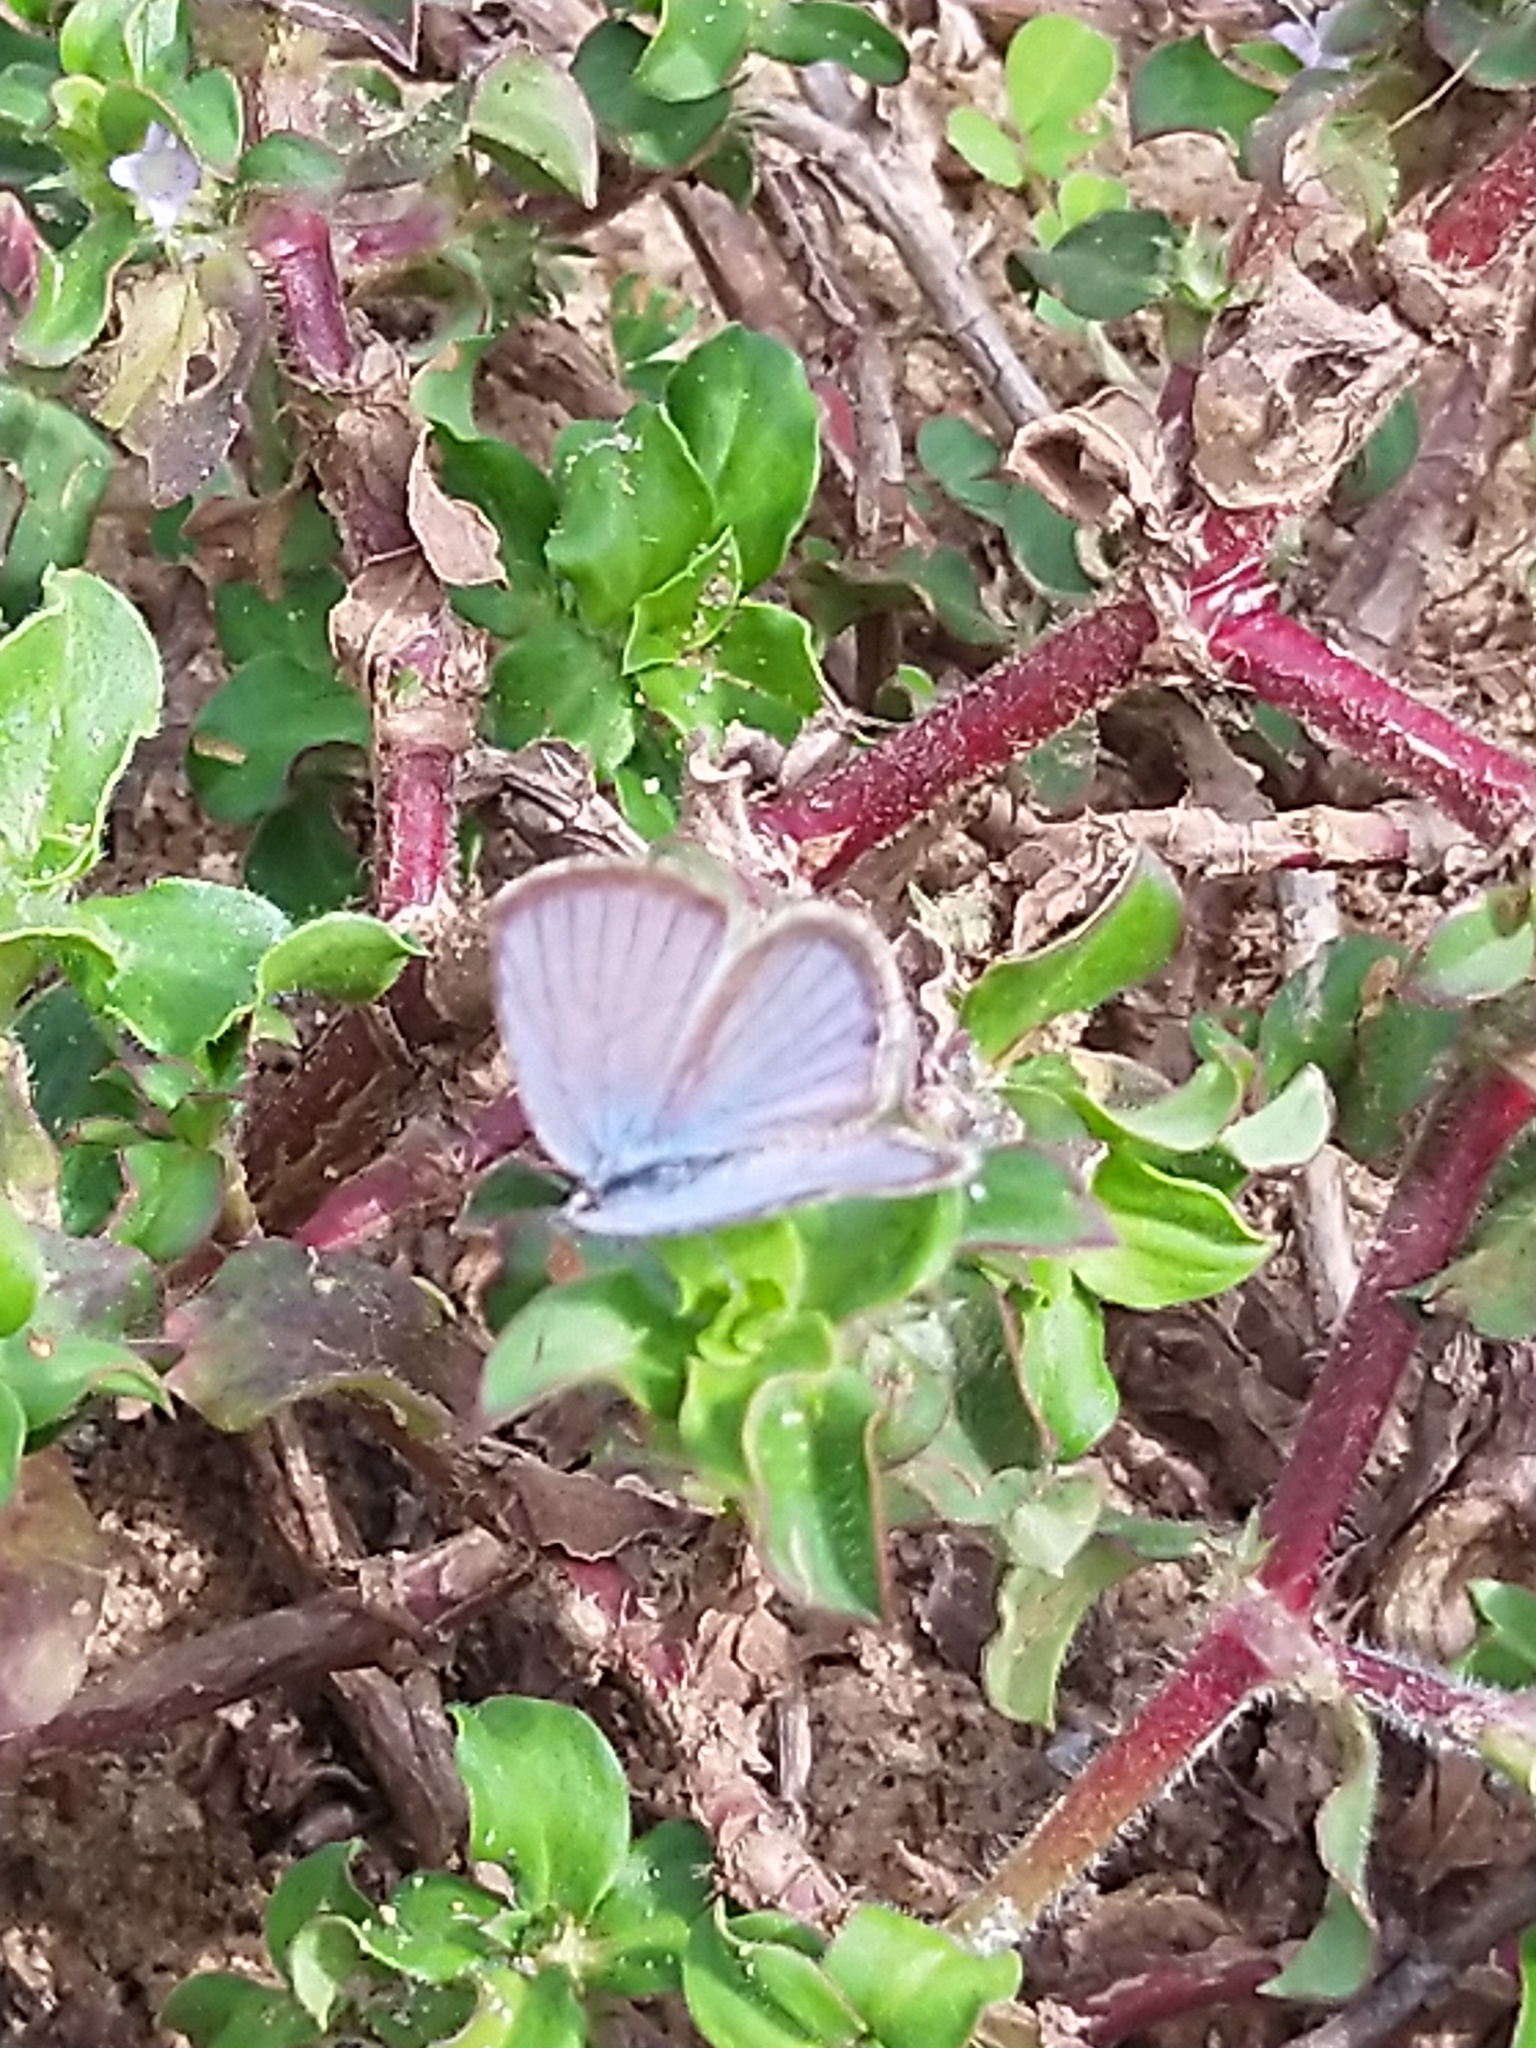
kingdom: Animalia
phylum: Arthropoda
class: Insecta
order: Lepidoptera
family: Lycaenidae
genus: Luthrodes
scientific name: Luthrodes pandava
